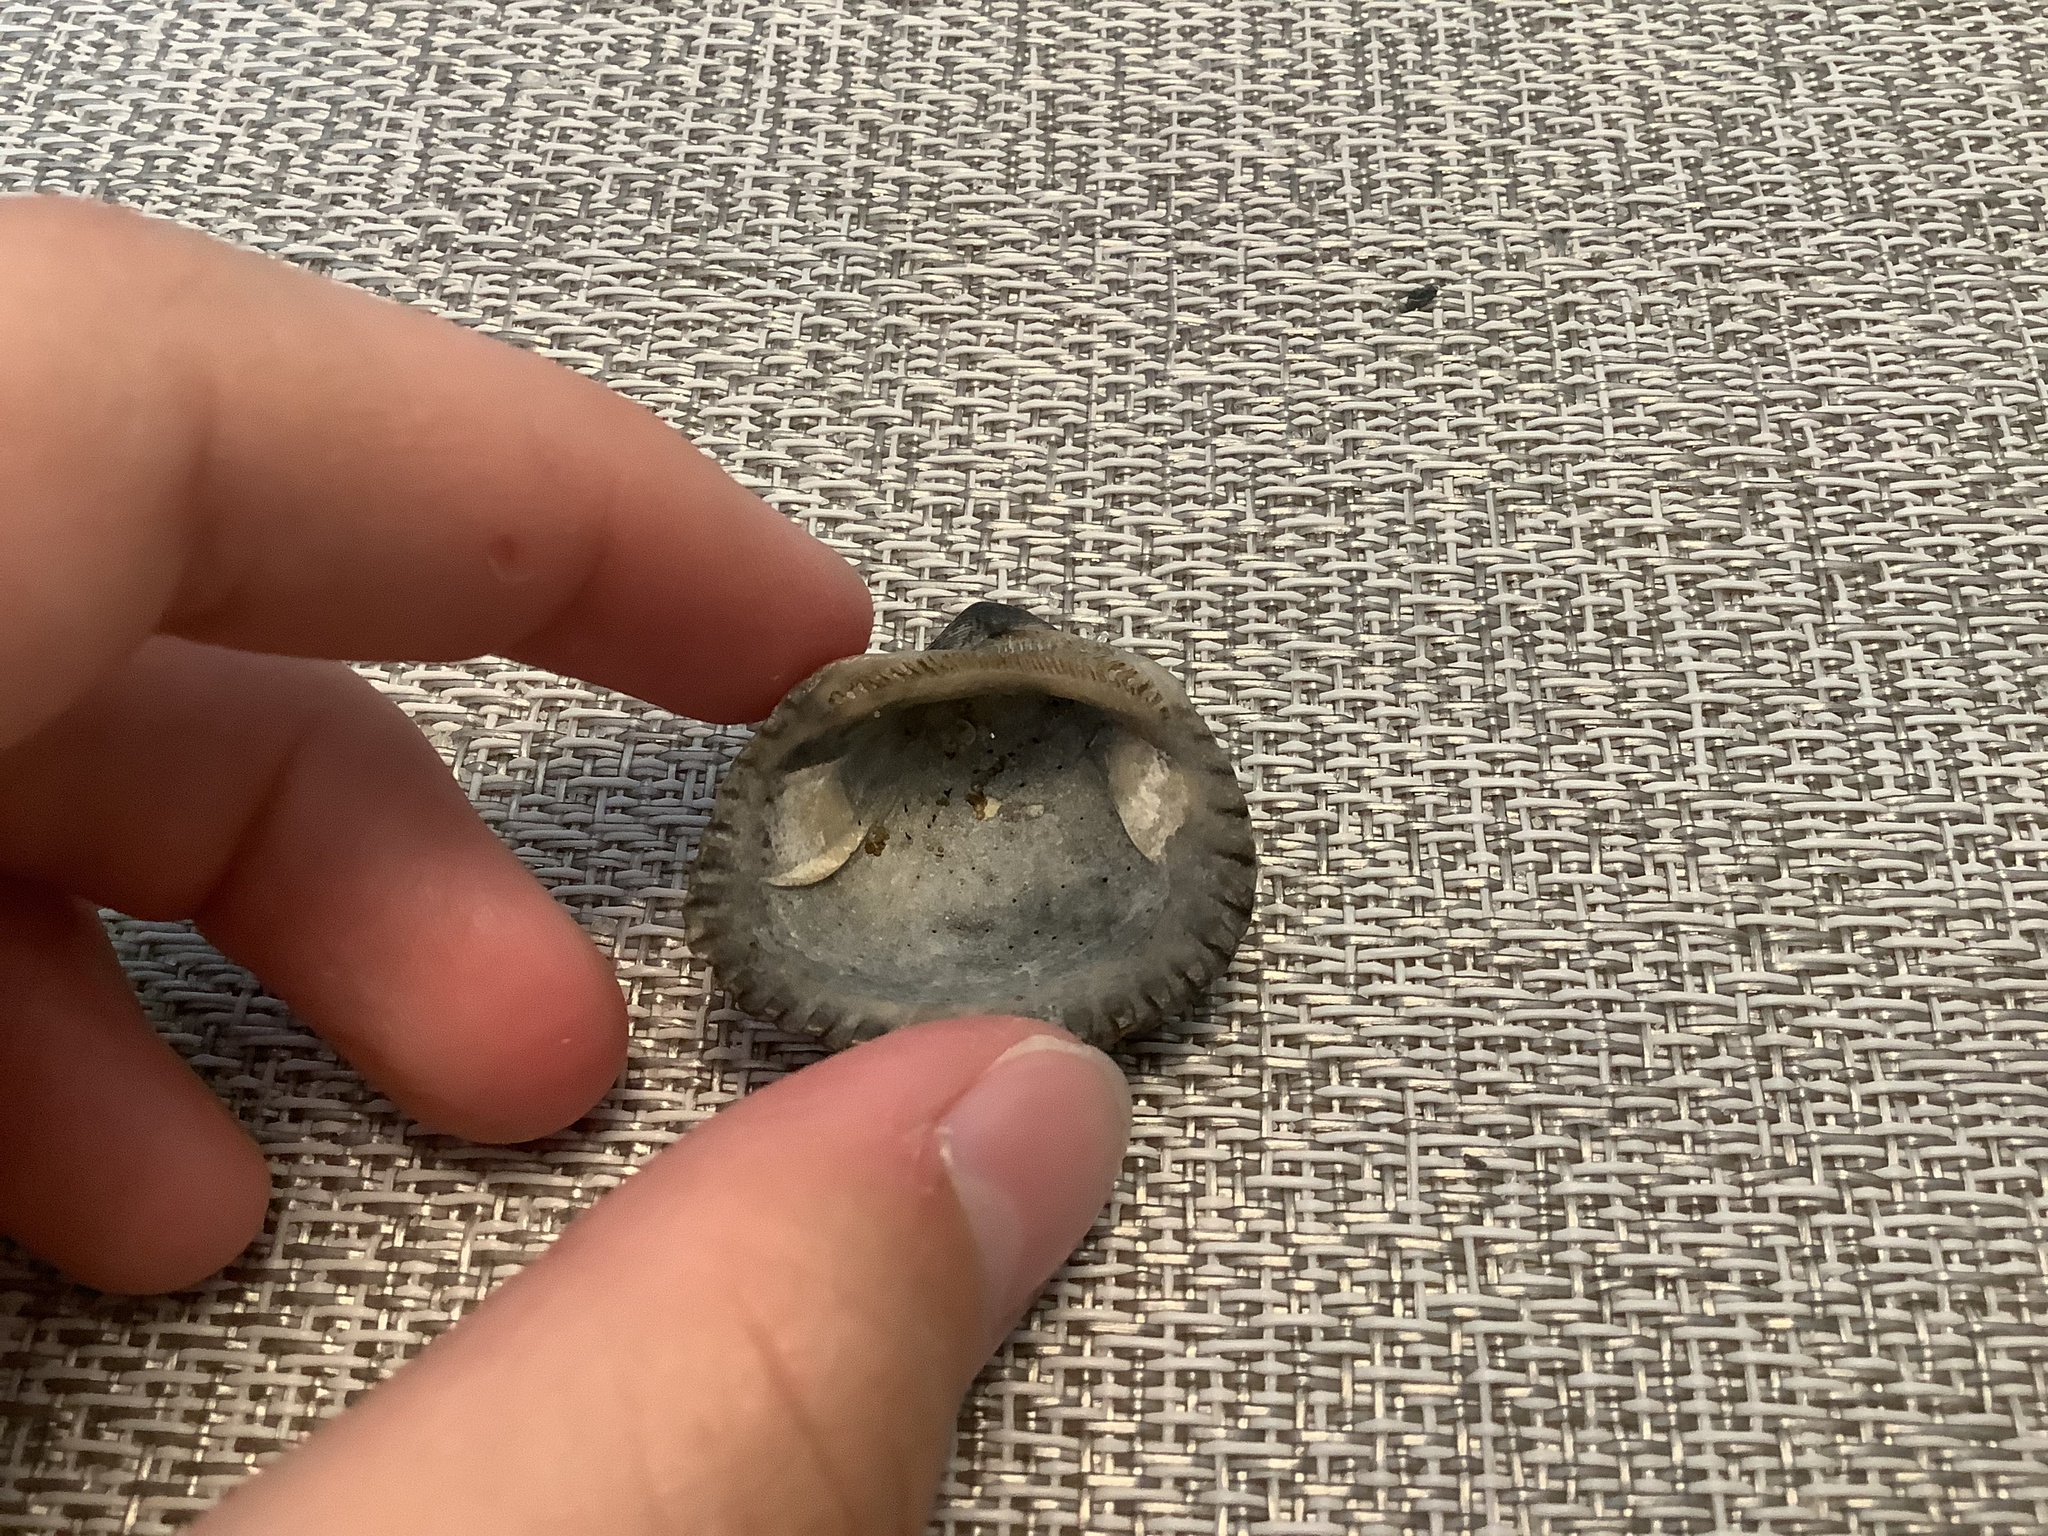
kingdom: Animalia
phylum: Mollusca
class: Bivalvia
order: Arcida
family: Noetiidae
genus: Noetia
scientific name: Noetia ponderosa
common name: Ponderous ark
